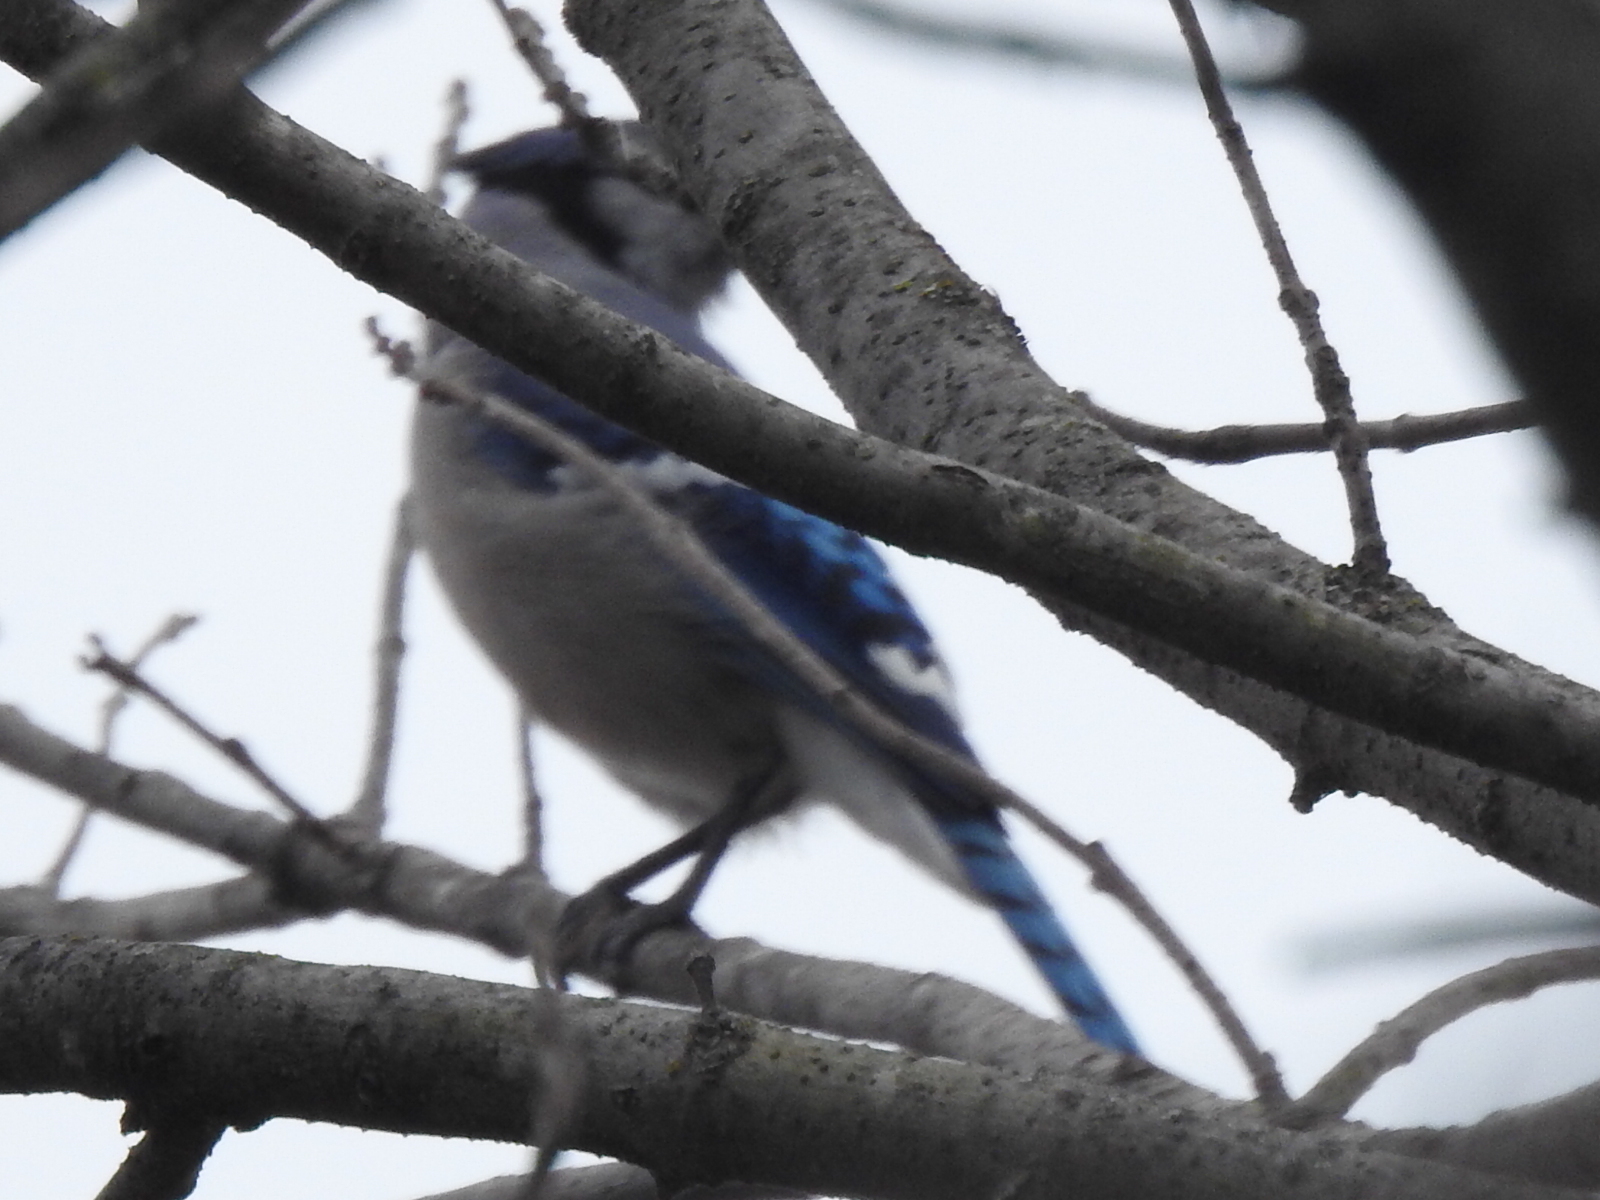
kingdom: Animalia
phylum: Chordata
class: Aves
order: Passeriformes
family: Corvidae
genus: Cyanocitta
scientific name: Cyanocitta cristata
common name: Blue jay
